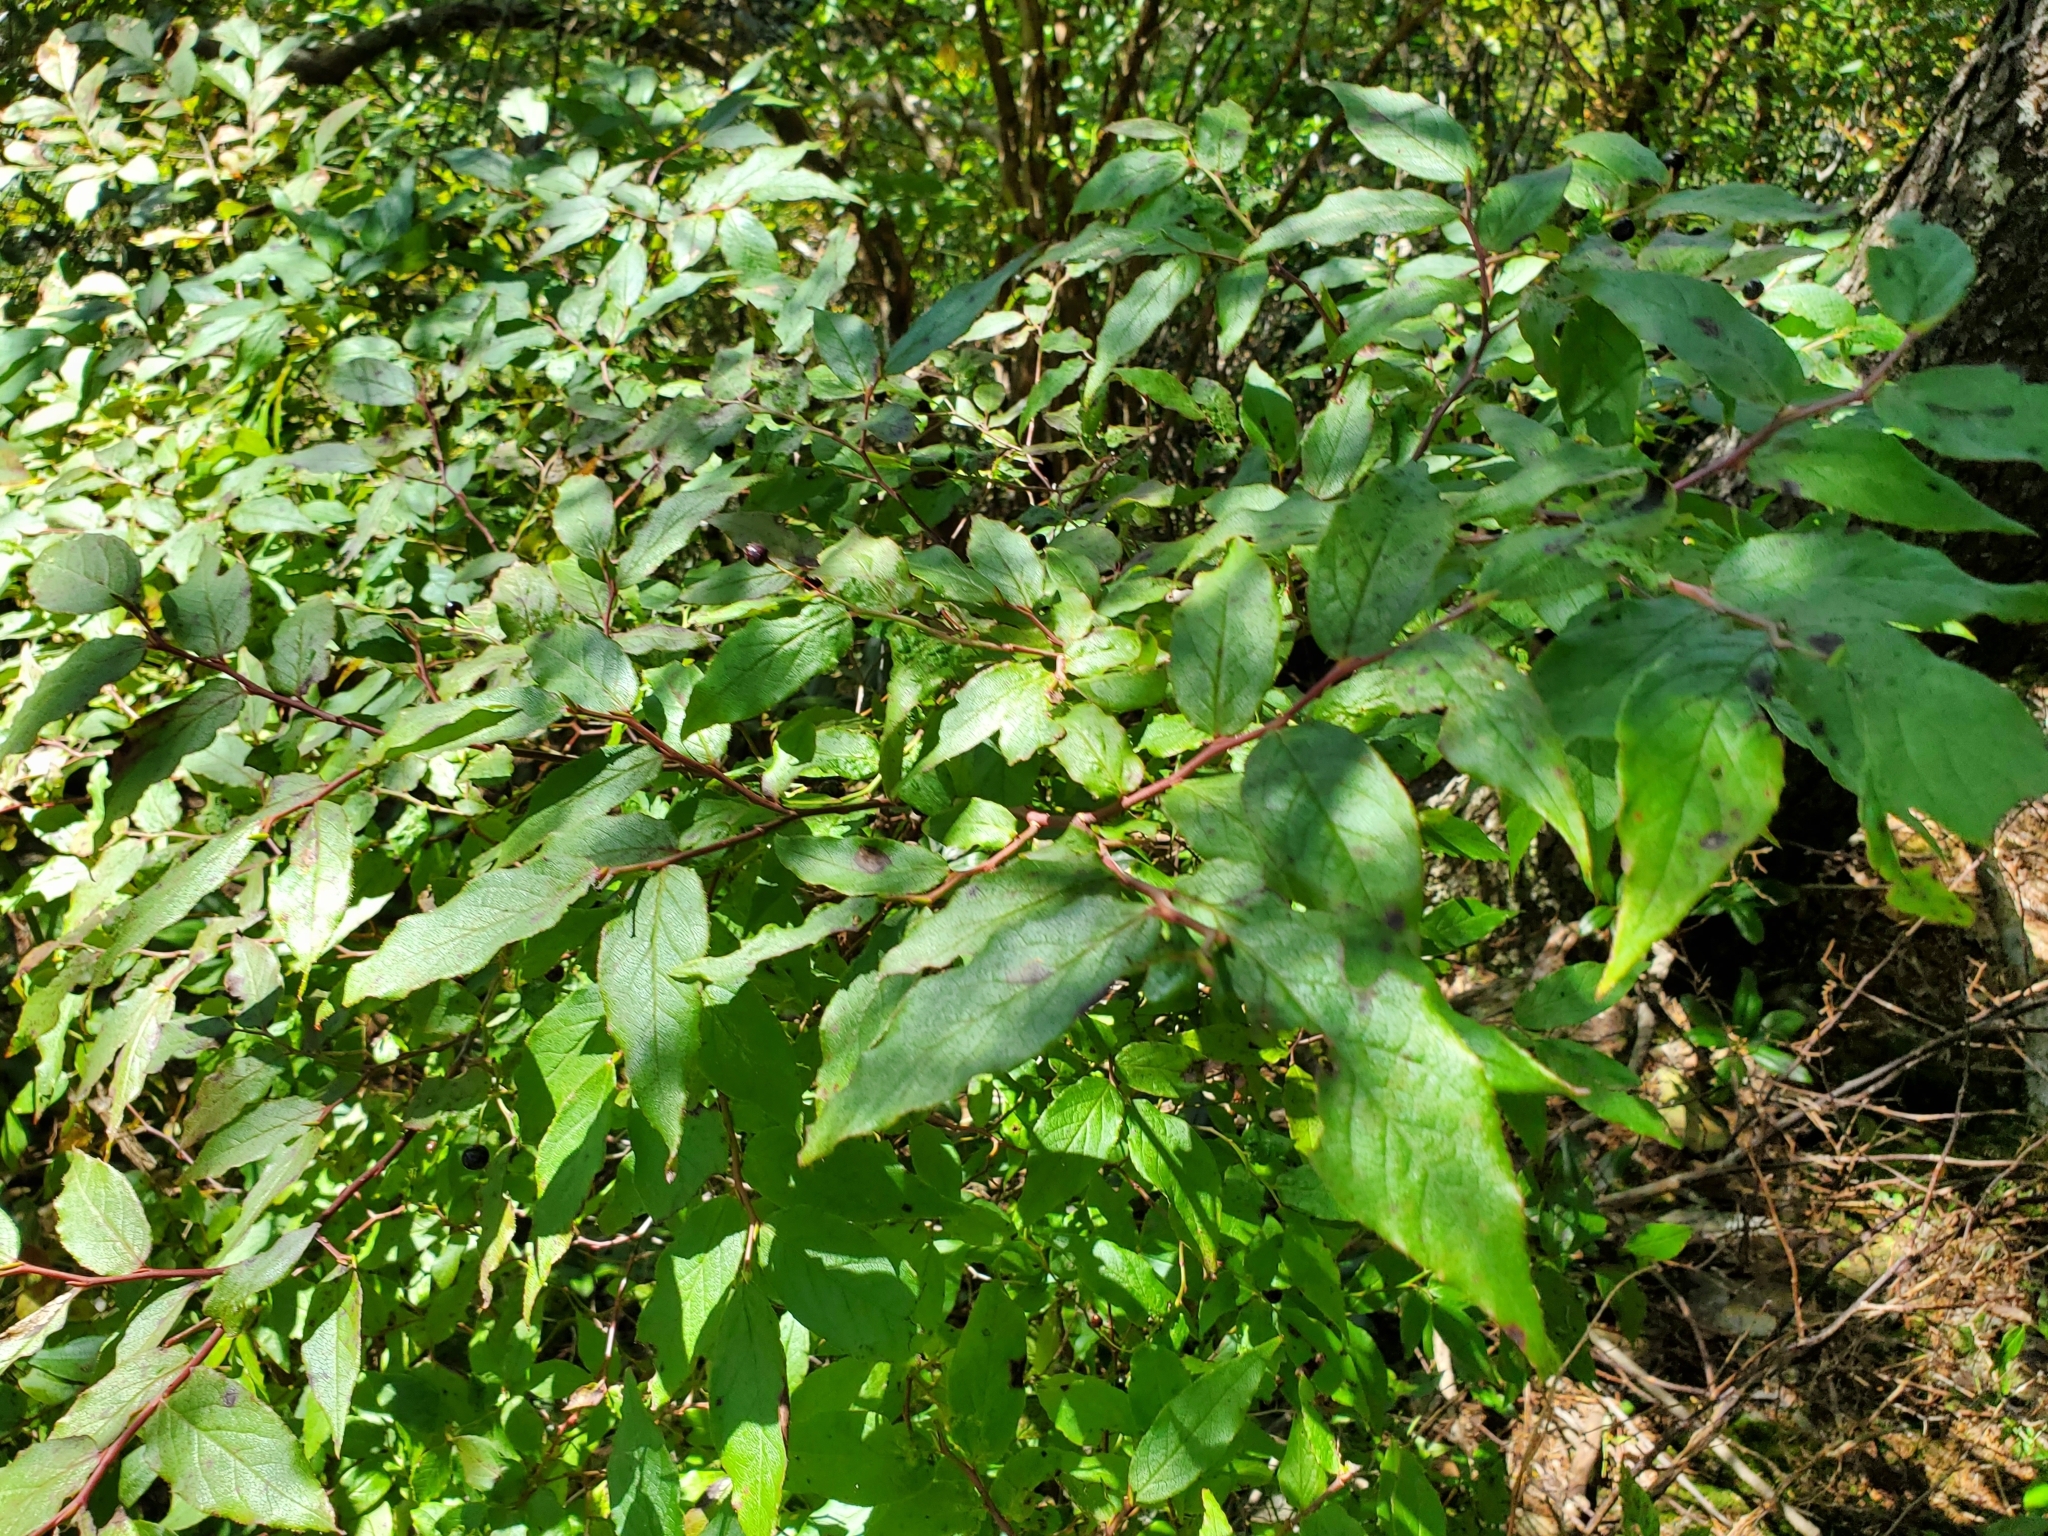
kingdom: Plantae
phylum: Tracheophyta
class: Magnoliopsida
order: Ericales
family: Ericaceae
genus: Vaccinium
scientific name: Vaccinium erythrocarpum
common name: Bearberry
